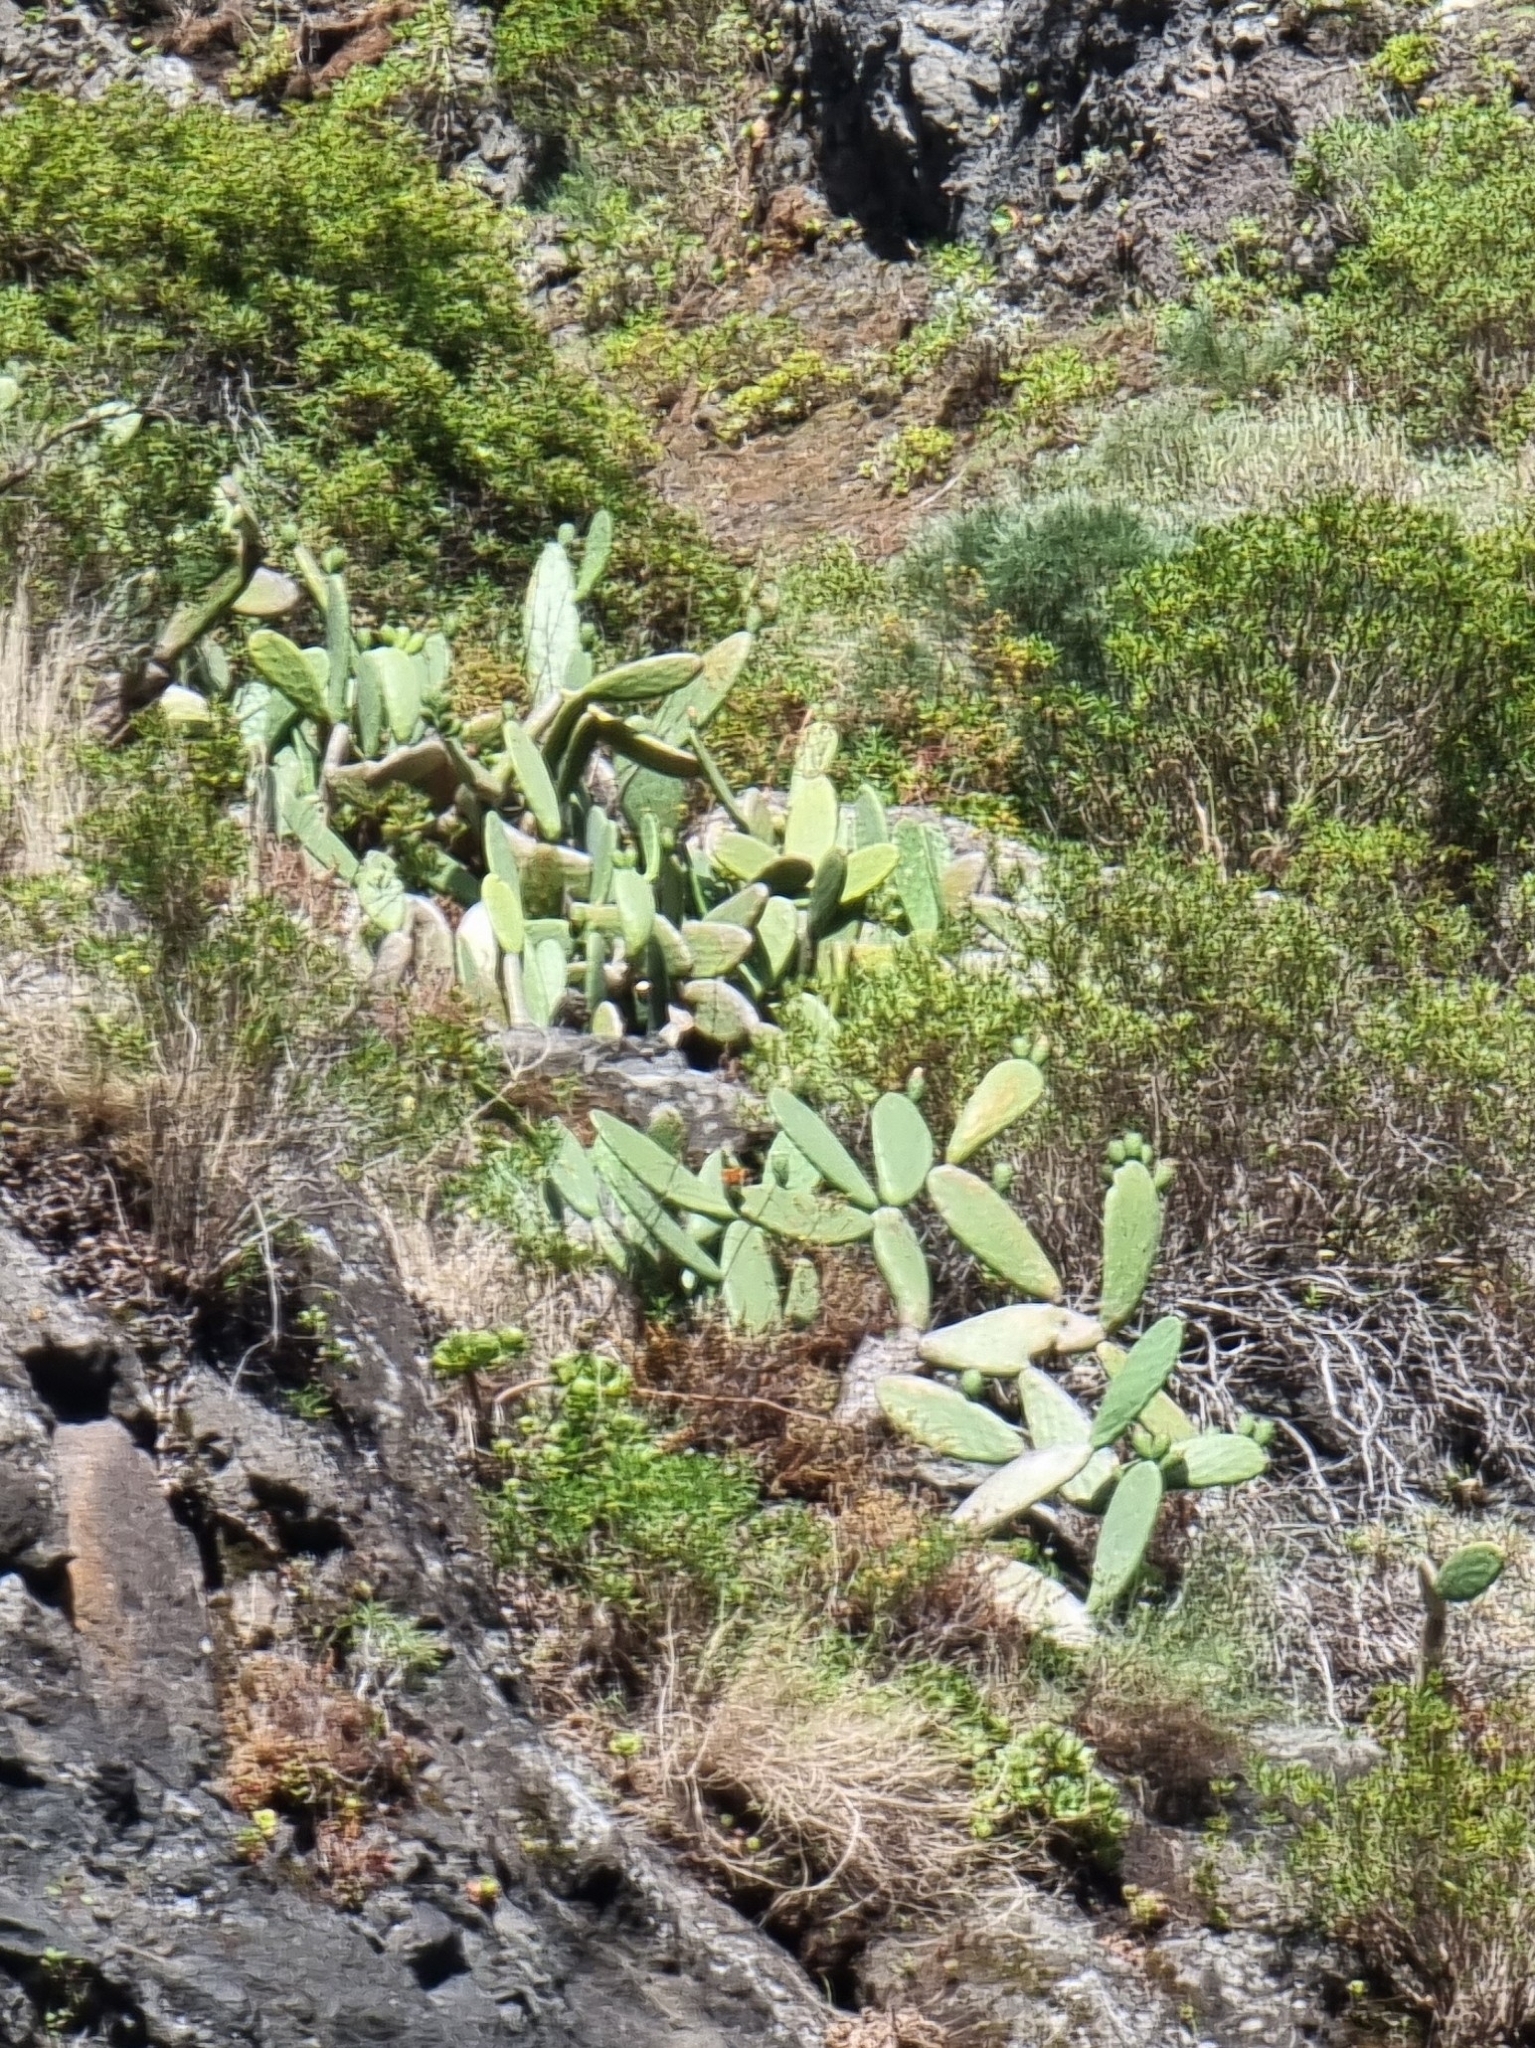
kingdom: Plantae
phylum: Tracheophyta
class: Magnoliopsida
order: Caryophyllales
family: Cactaceae
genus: Opuntia
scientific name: Opuntia ficus-indica
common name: Barbary fig
